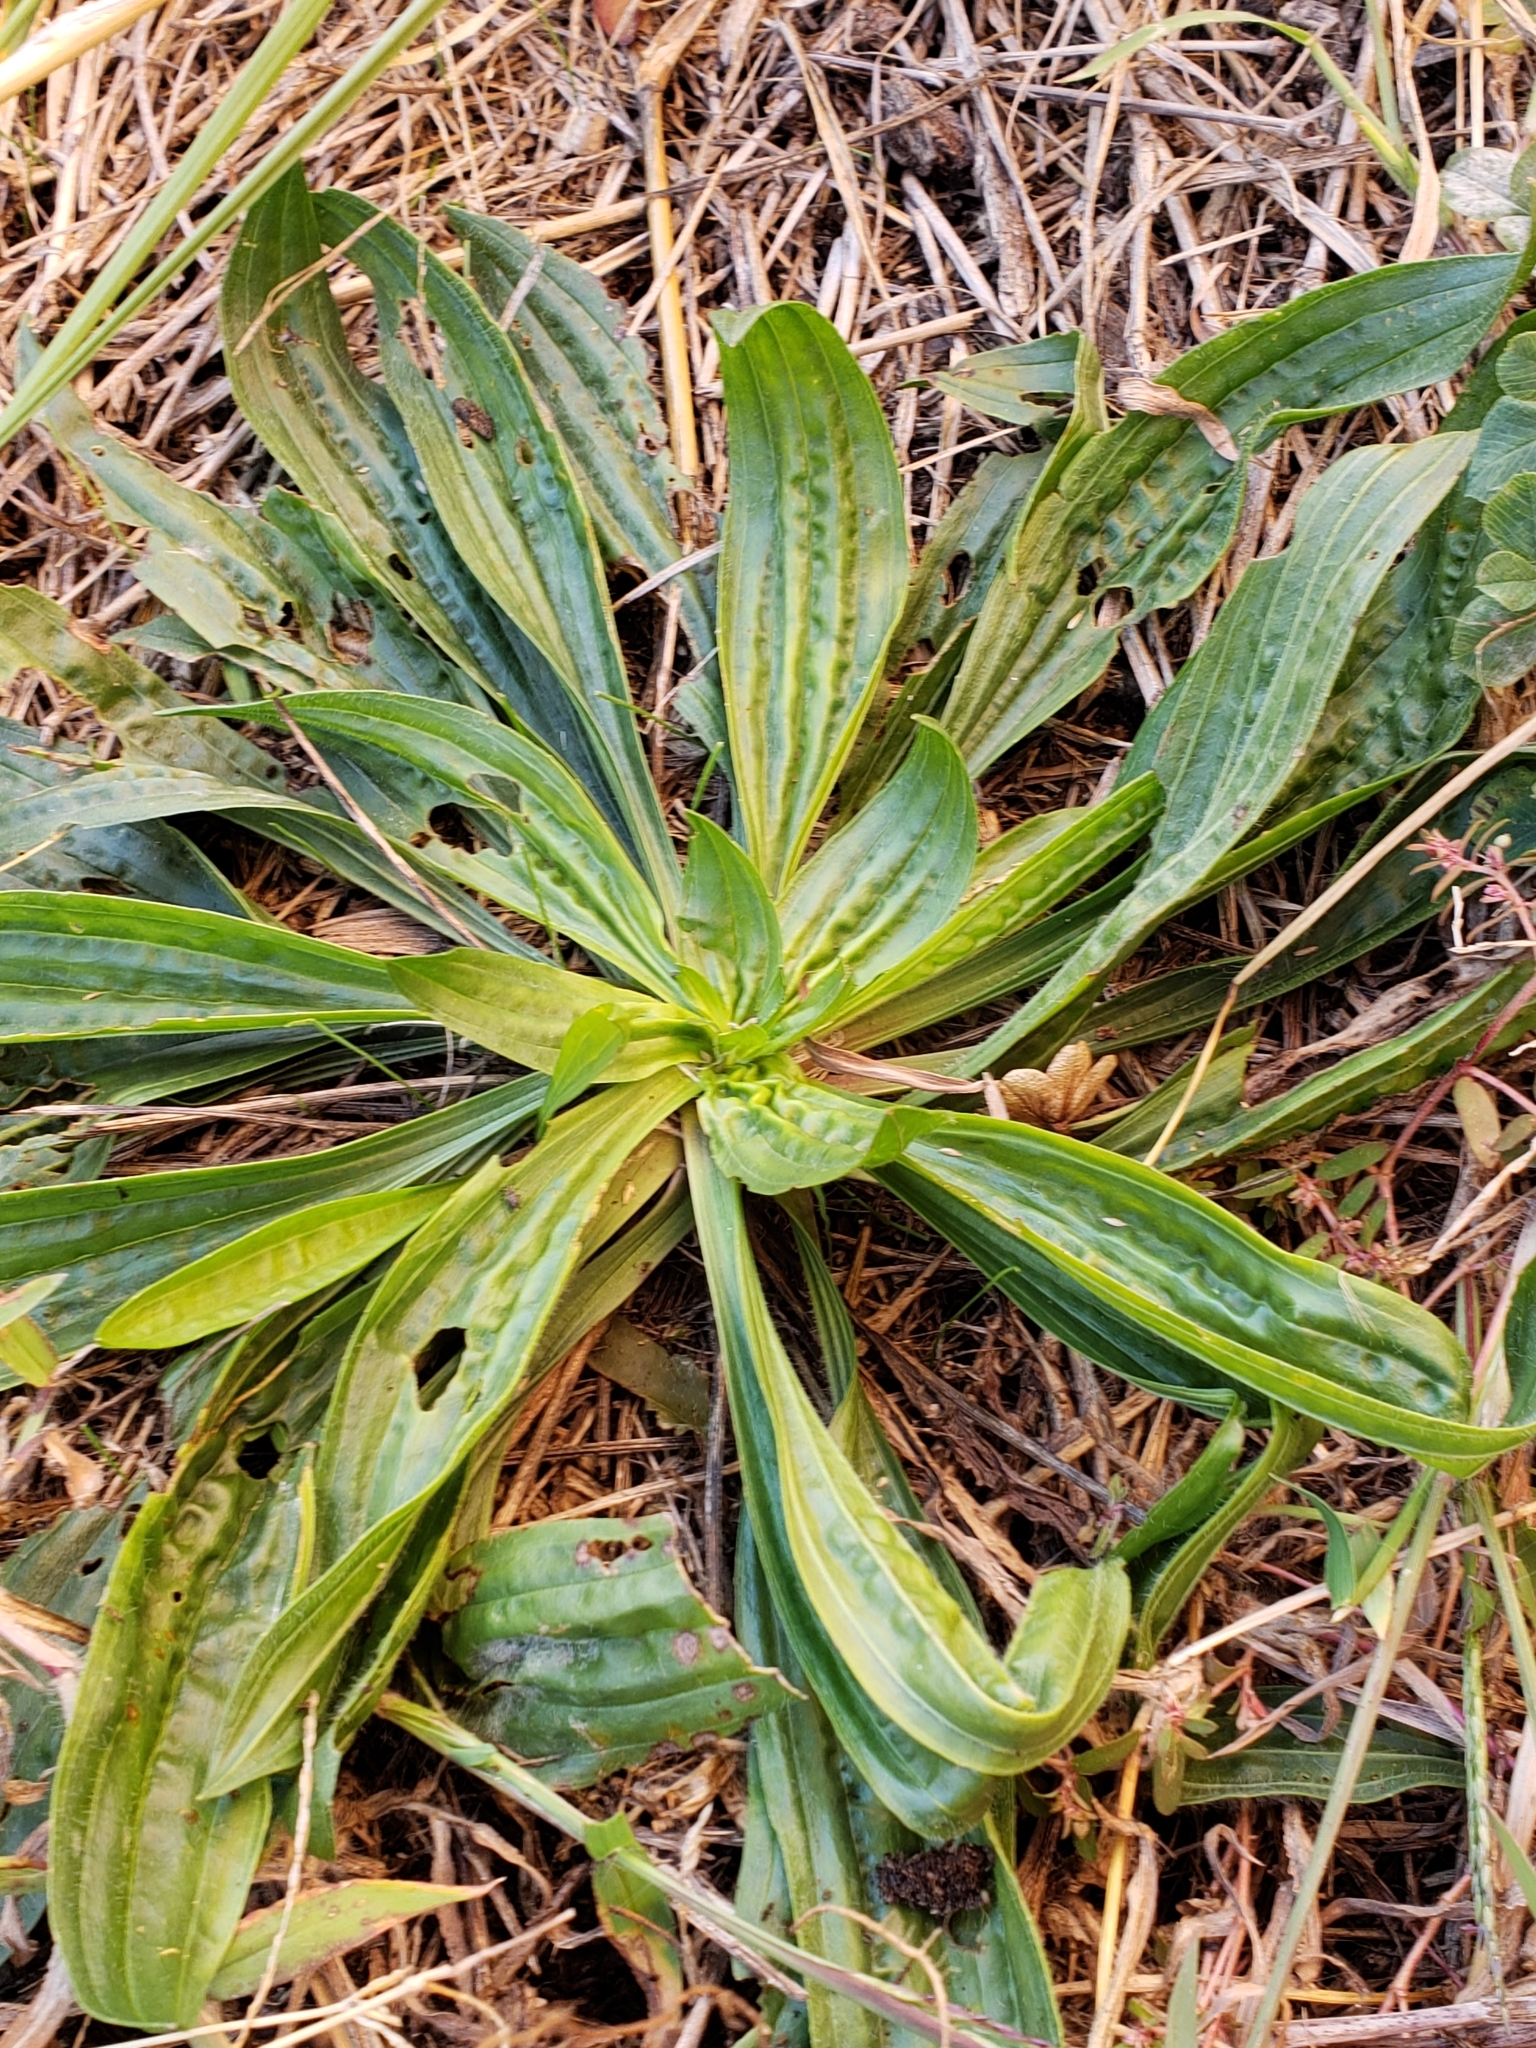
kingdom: Plantae
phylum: Tracheophyta
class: Magnoliopsida
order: Lamiales
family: Plantaginaceae
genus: Plantago
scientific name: Plantago lanceolata
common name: Ribwort plantain
